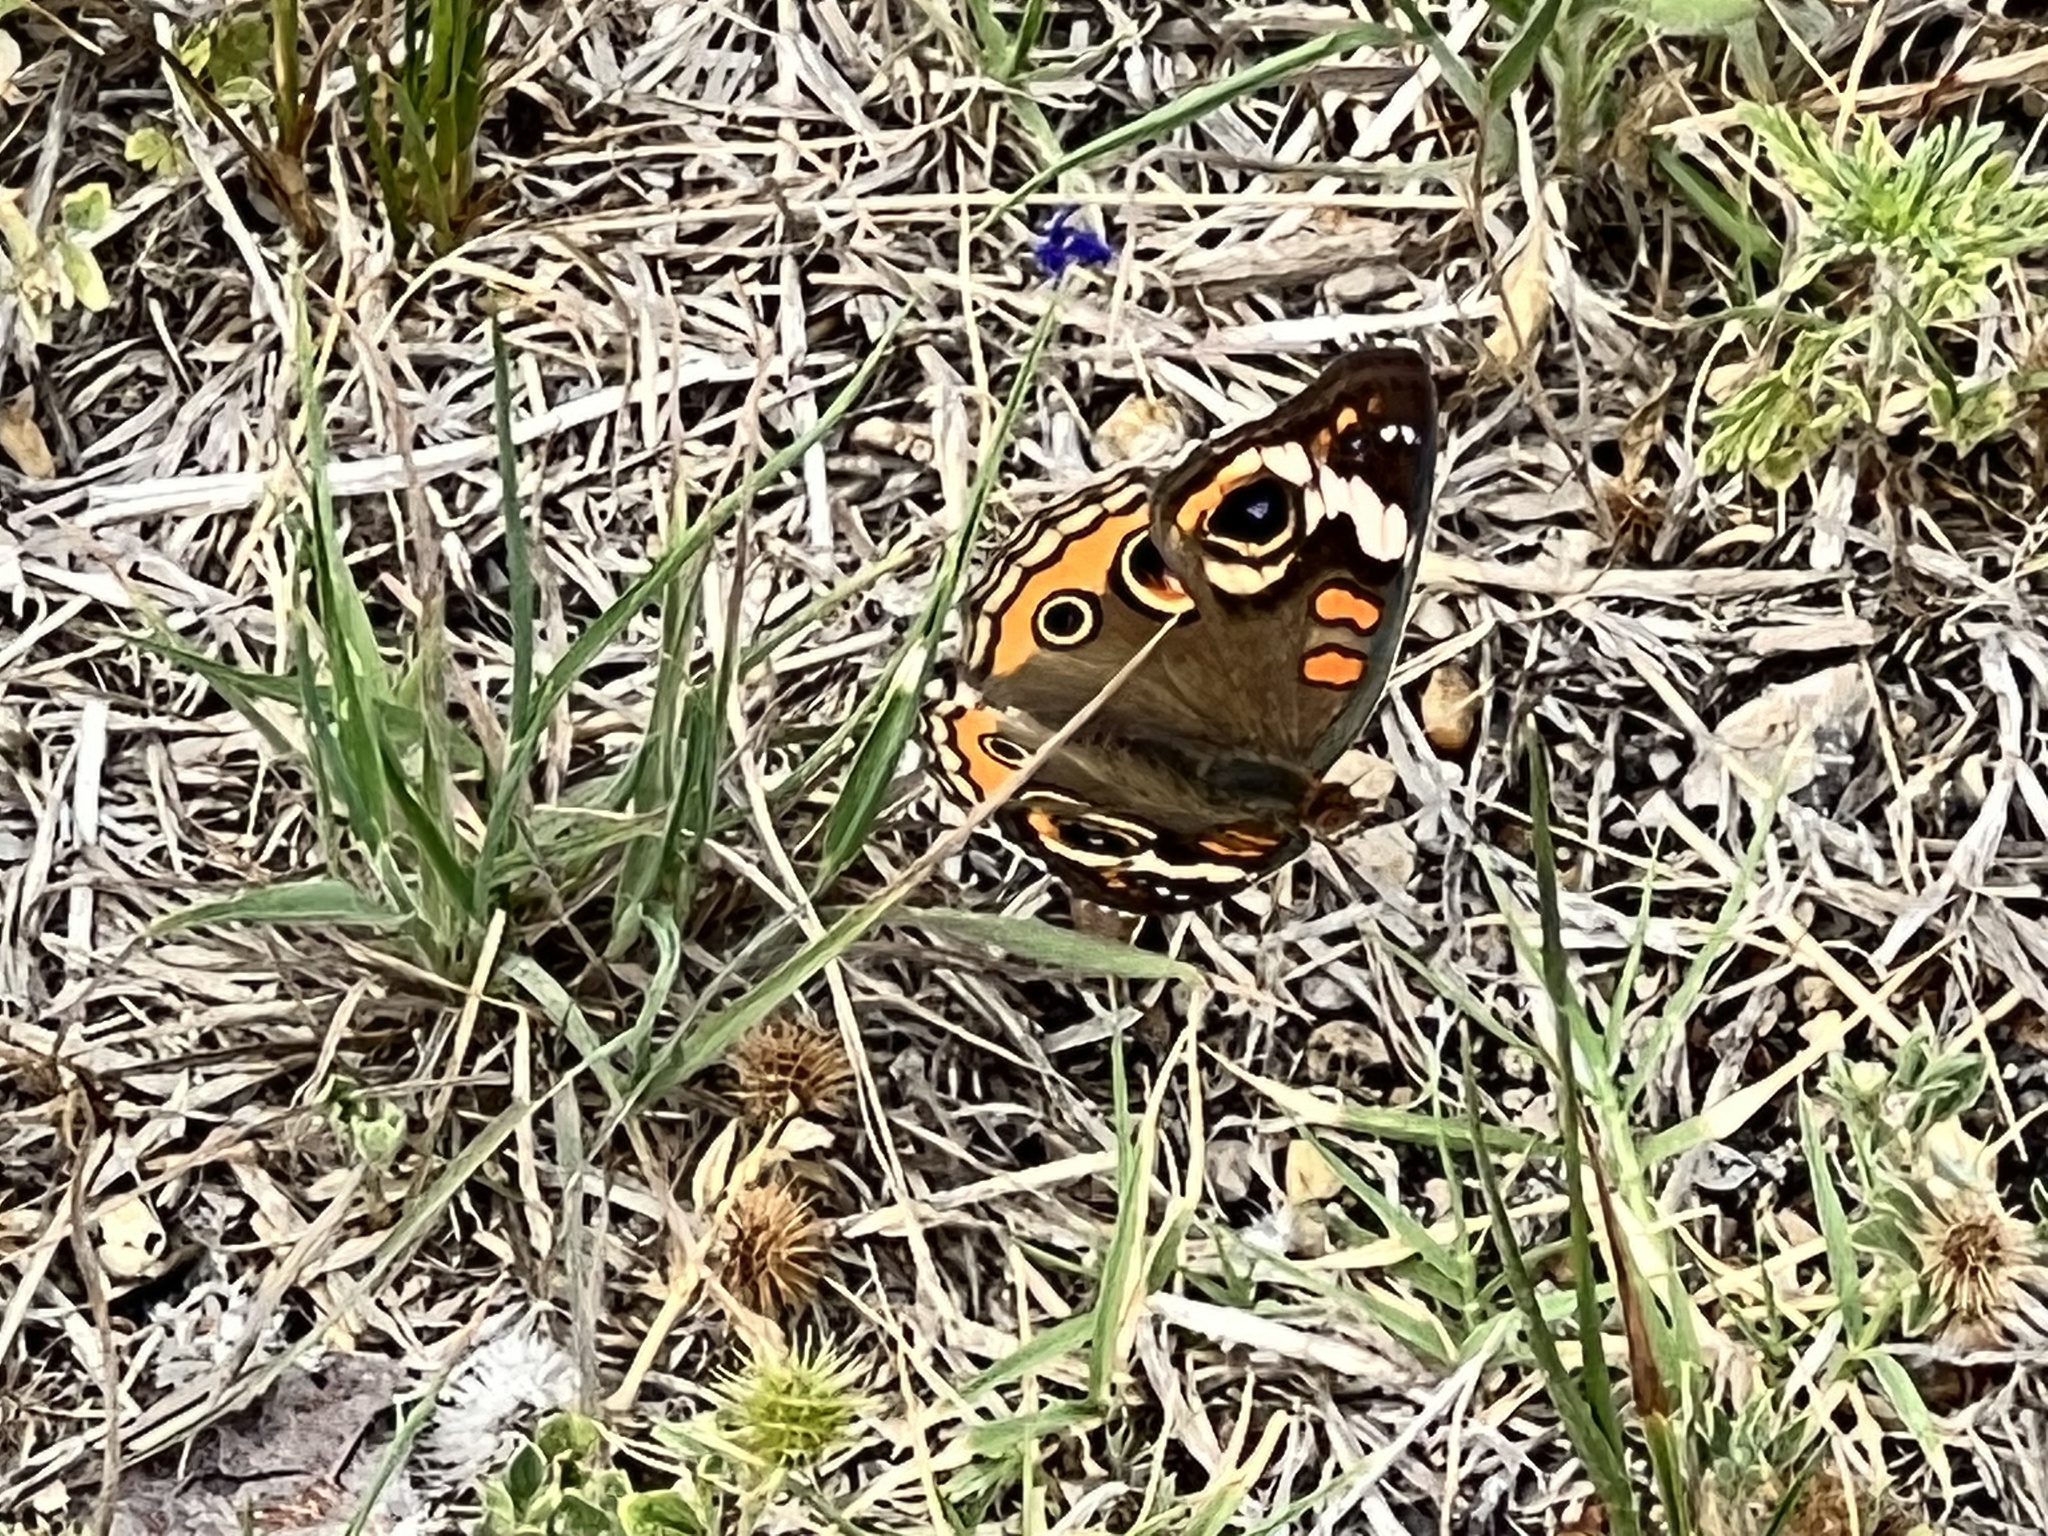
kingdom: Animalia
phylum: Arthropoda
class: Insecta
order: Lepidoptera
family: Nymphalidae
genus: Junonia
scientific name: Junonia coenia
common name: Common buckeye
